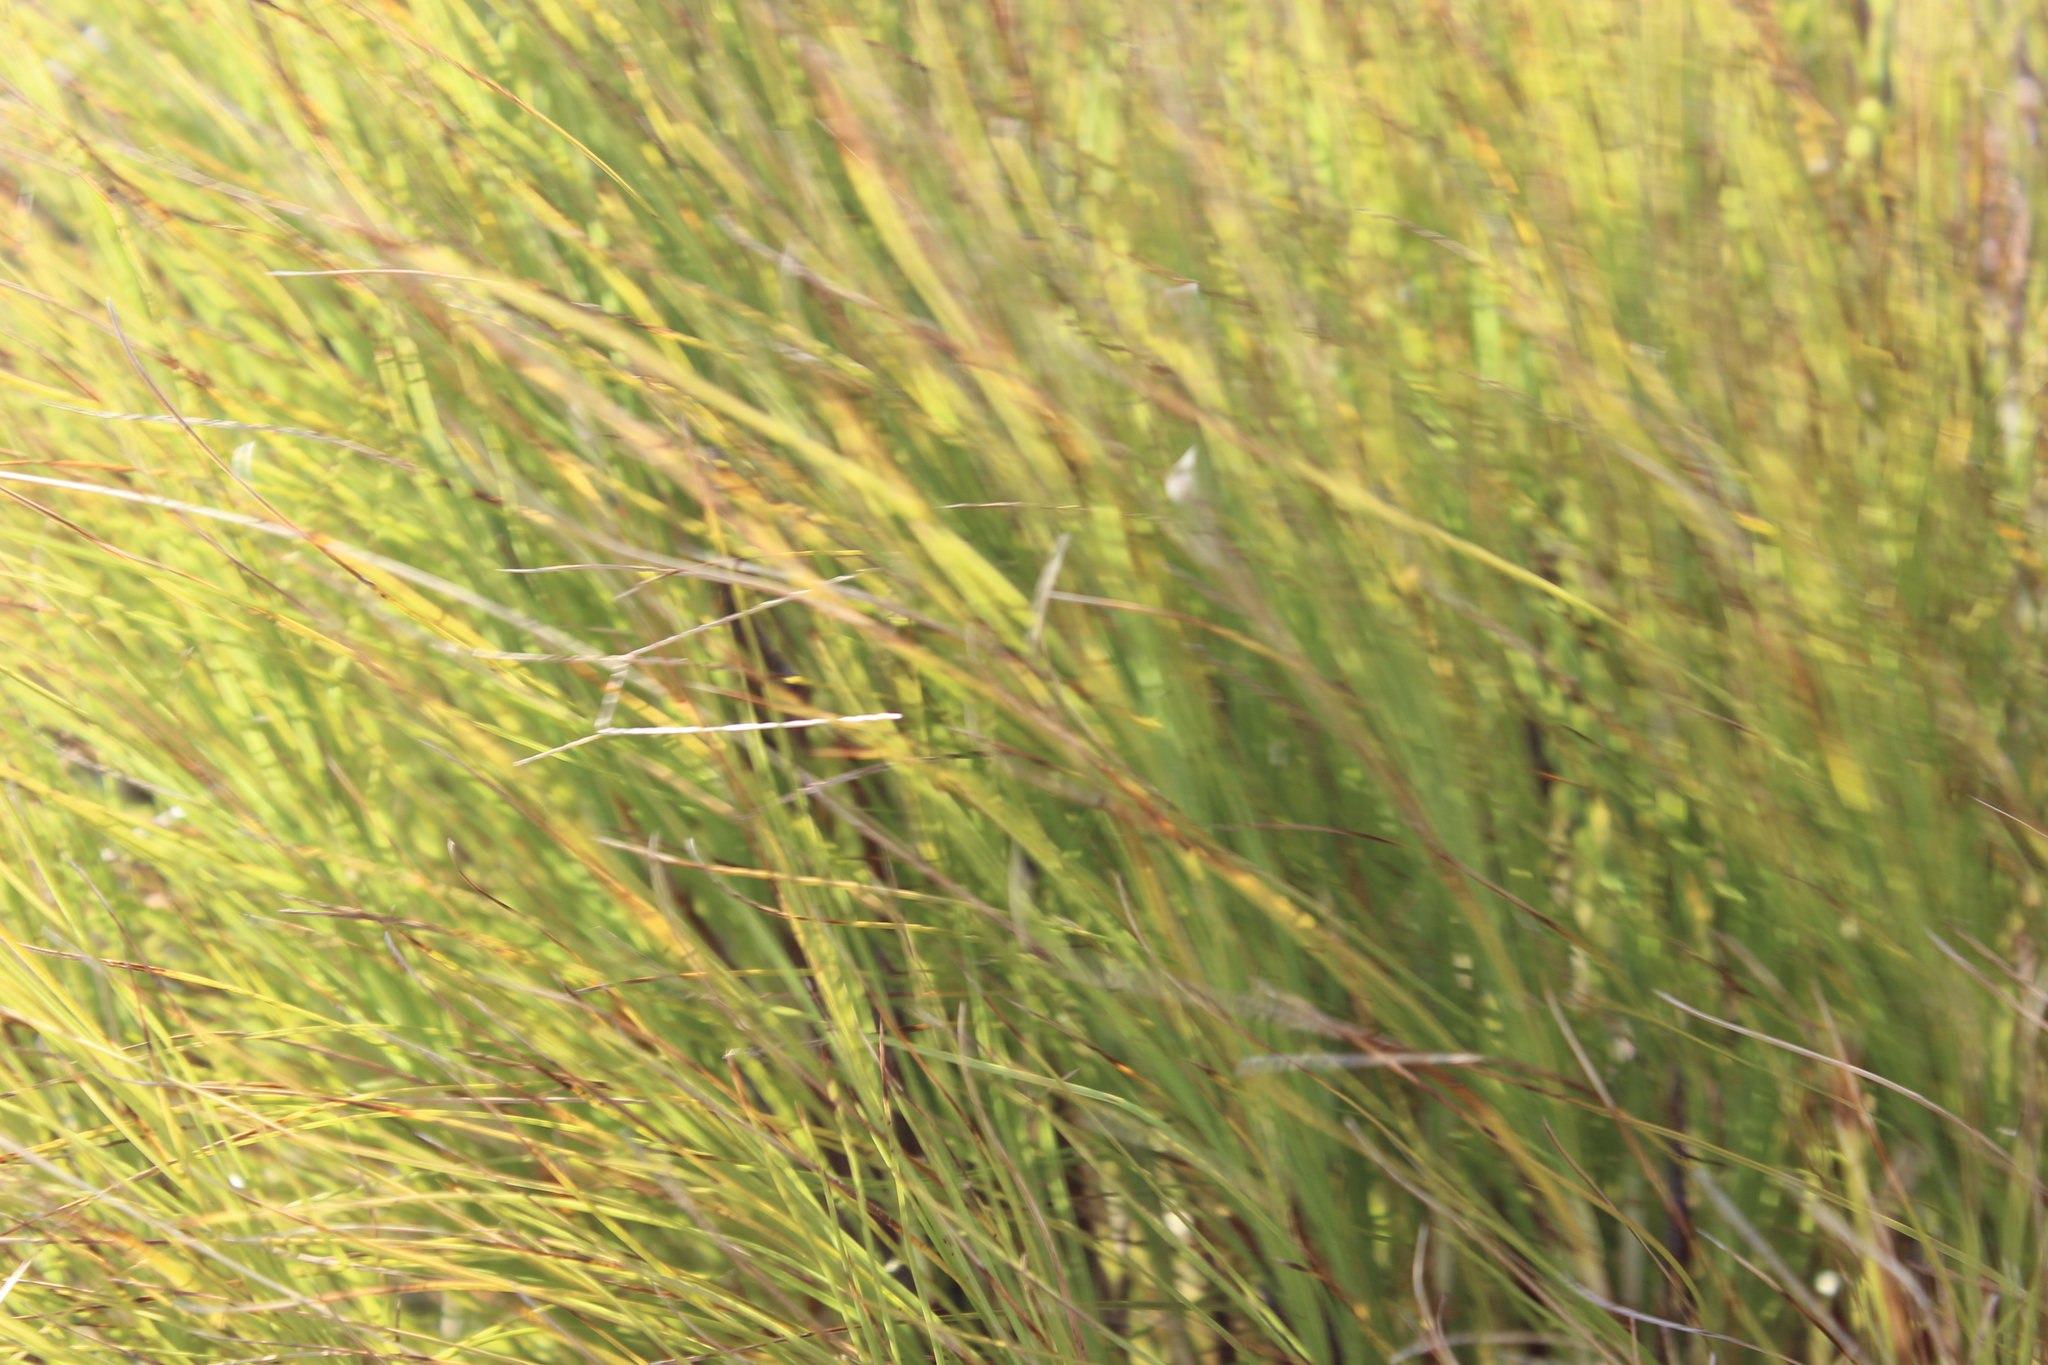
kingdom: Plantae
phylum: Tracheophyta
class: Magnoliopsida
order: Ericales
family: Ericaceae
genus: Dracophyllum
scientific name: Dracophyllum filifolium
